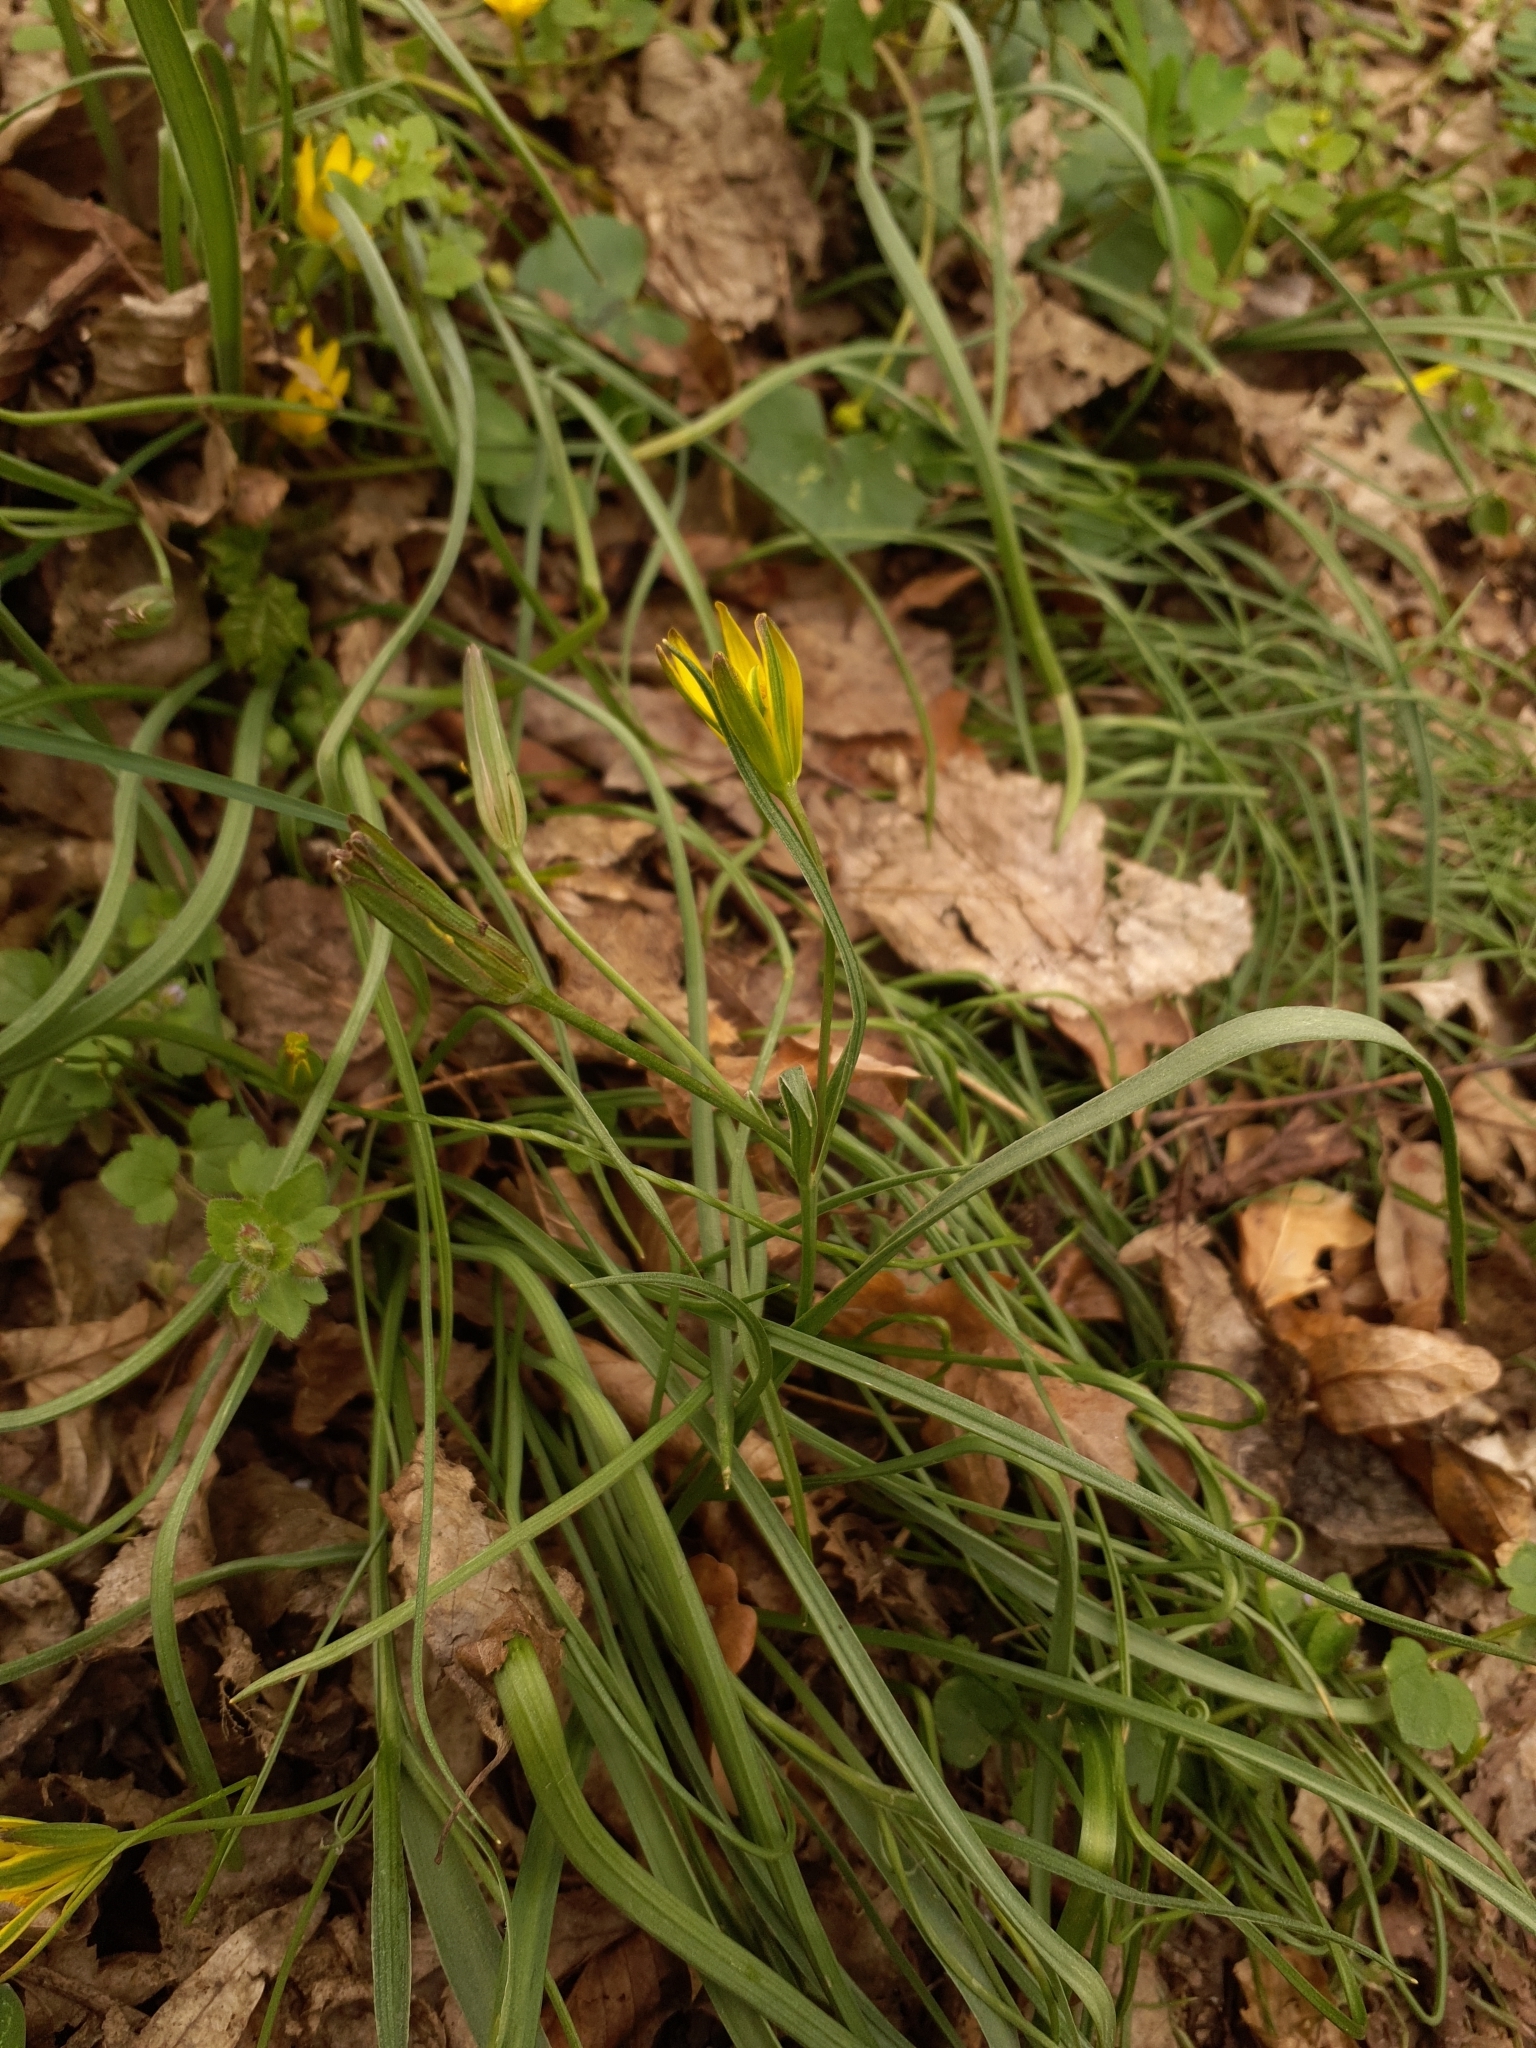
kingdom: Plantae
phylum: Tracheophyta
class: Liliopsida
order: Liliales
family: Liliaceae
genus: Gagea
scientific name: Gagea pratensis
